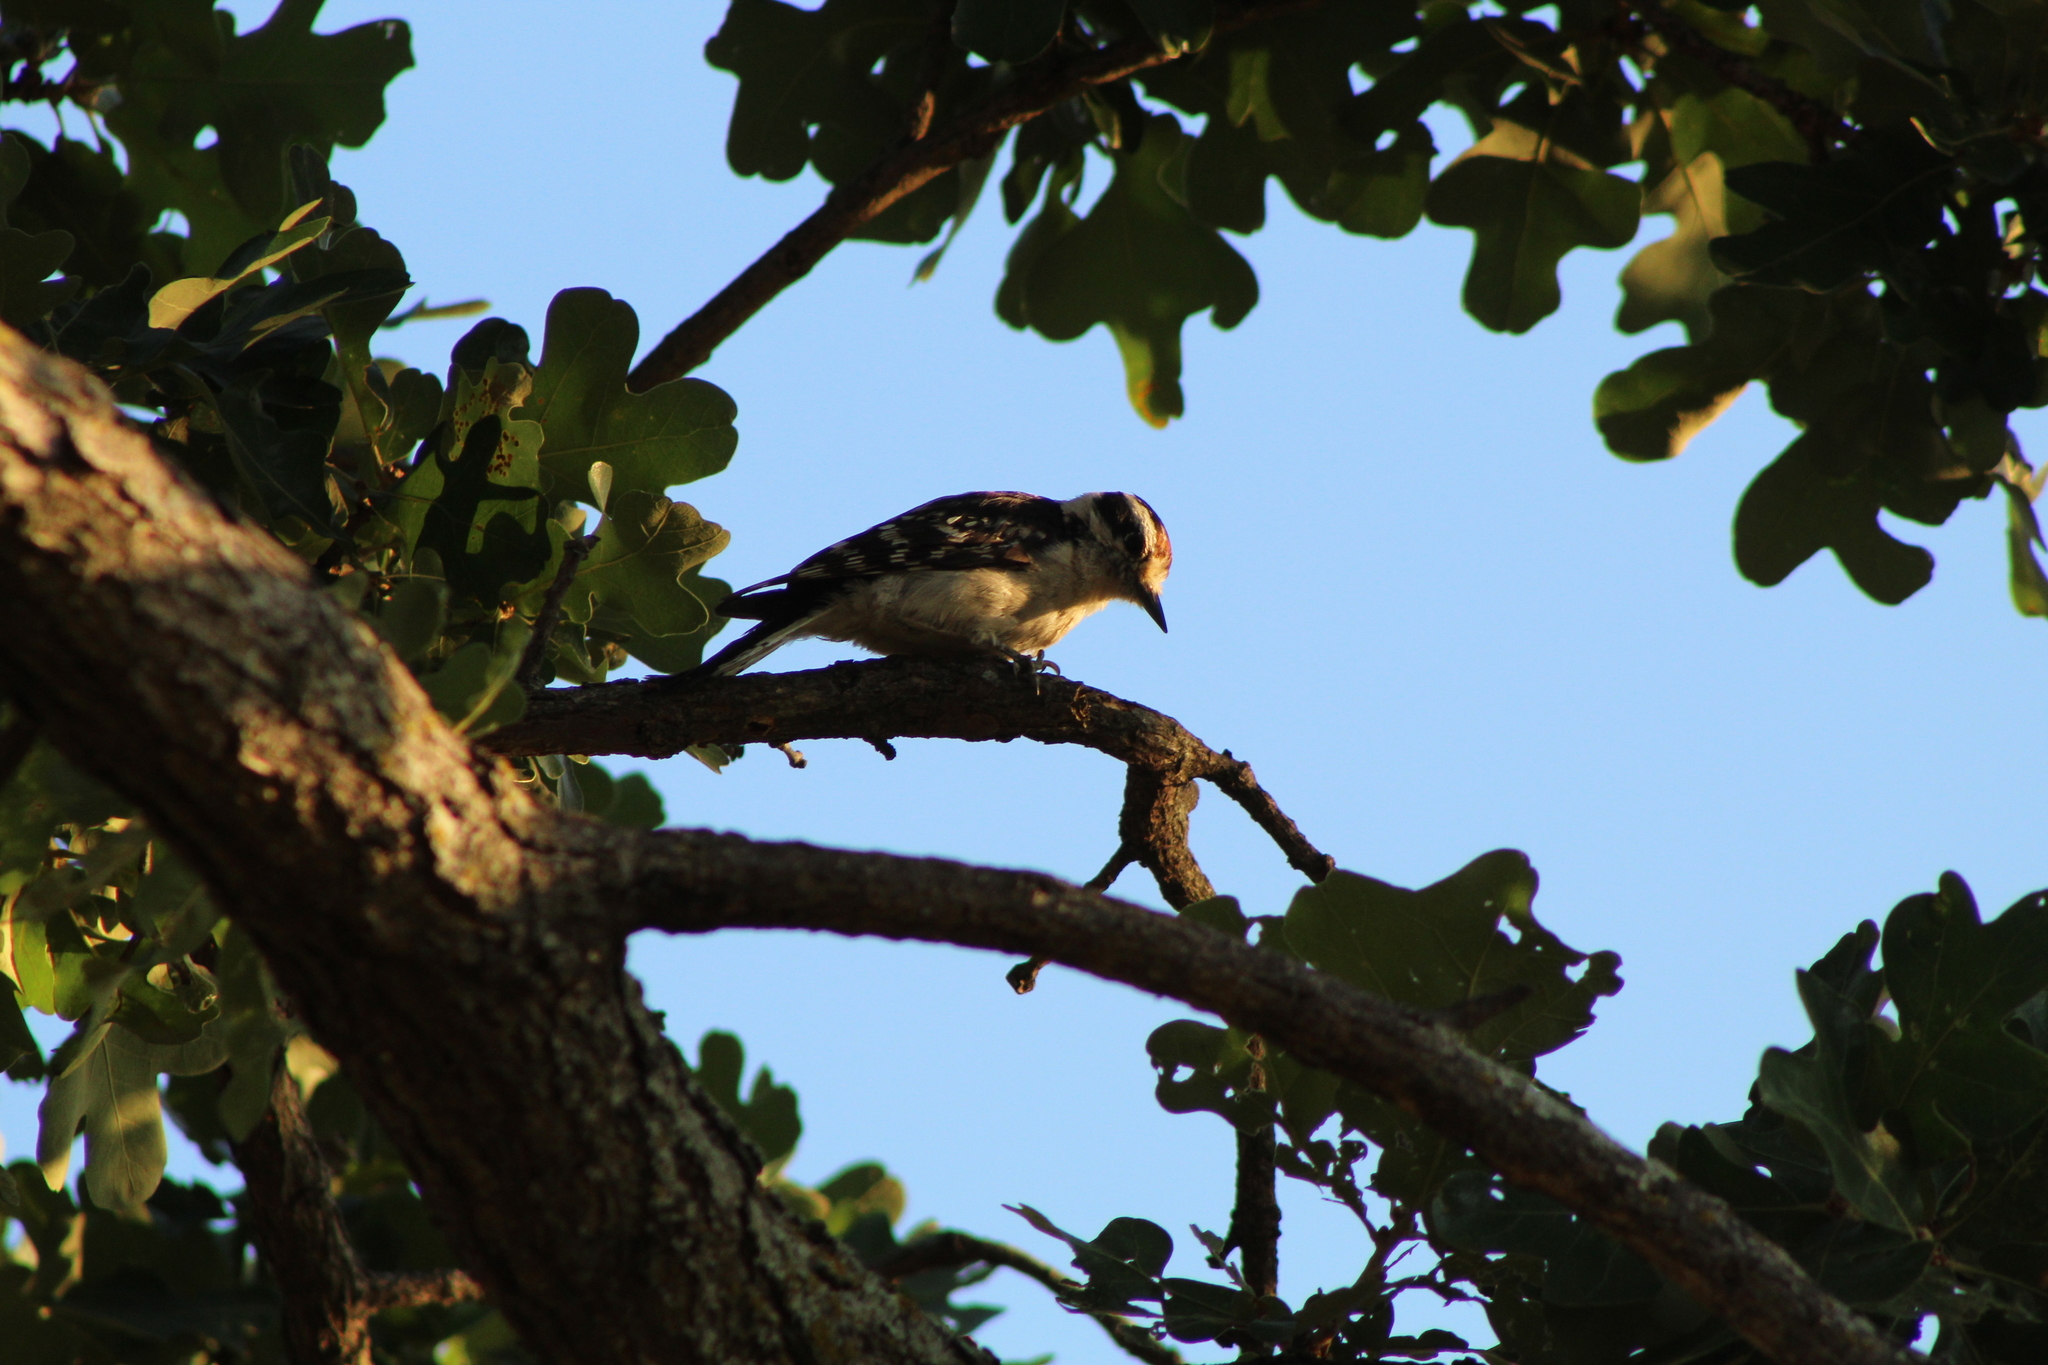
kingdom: Animalia
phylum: Chordata
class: Aves
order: Piciformes
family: Picidae
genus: Dryobates
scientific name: Dryobates pubescens
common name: Downy woodpecker
